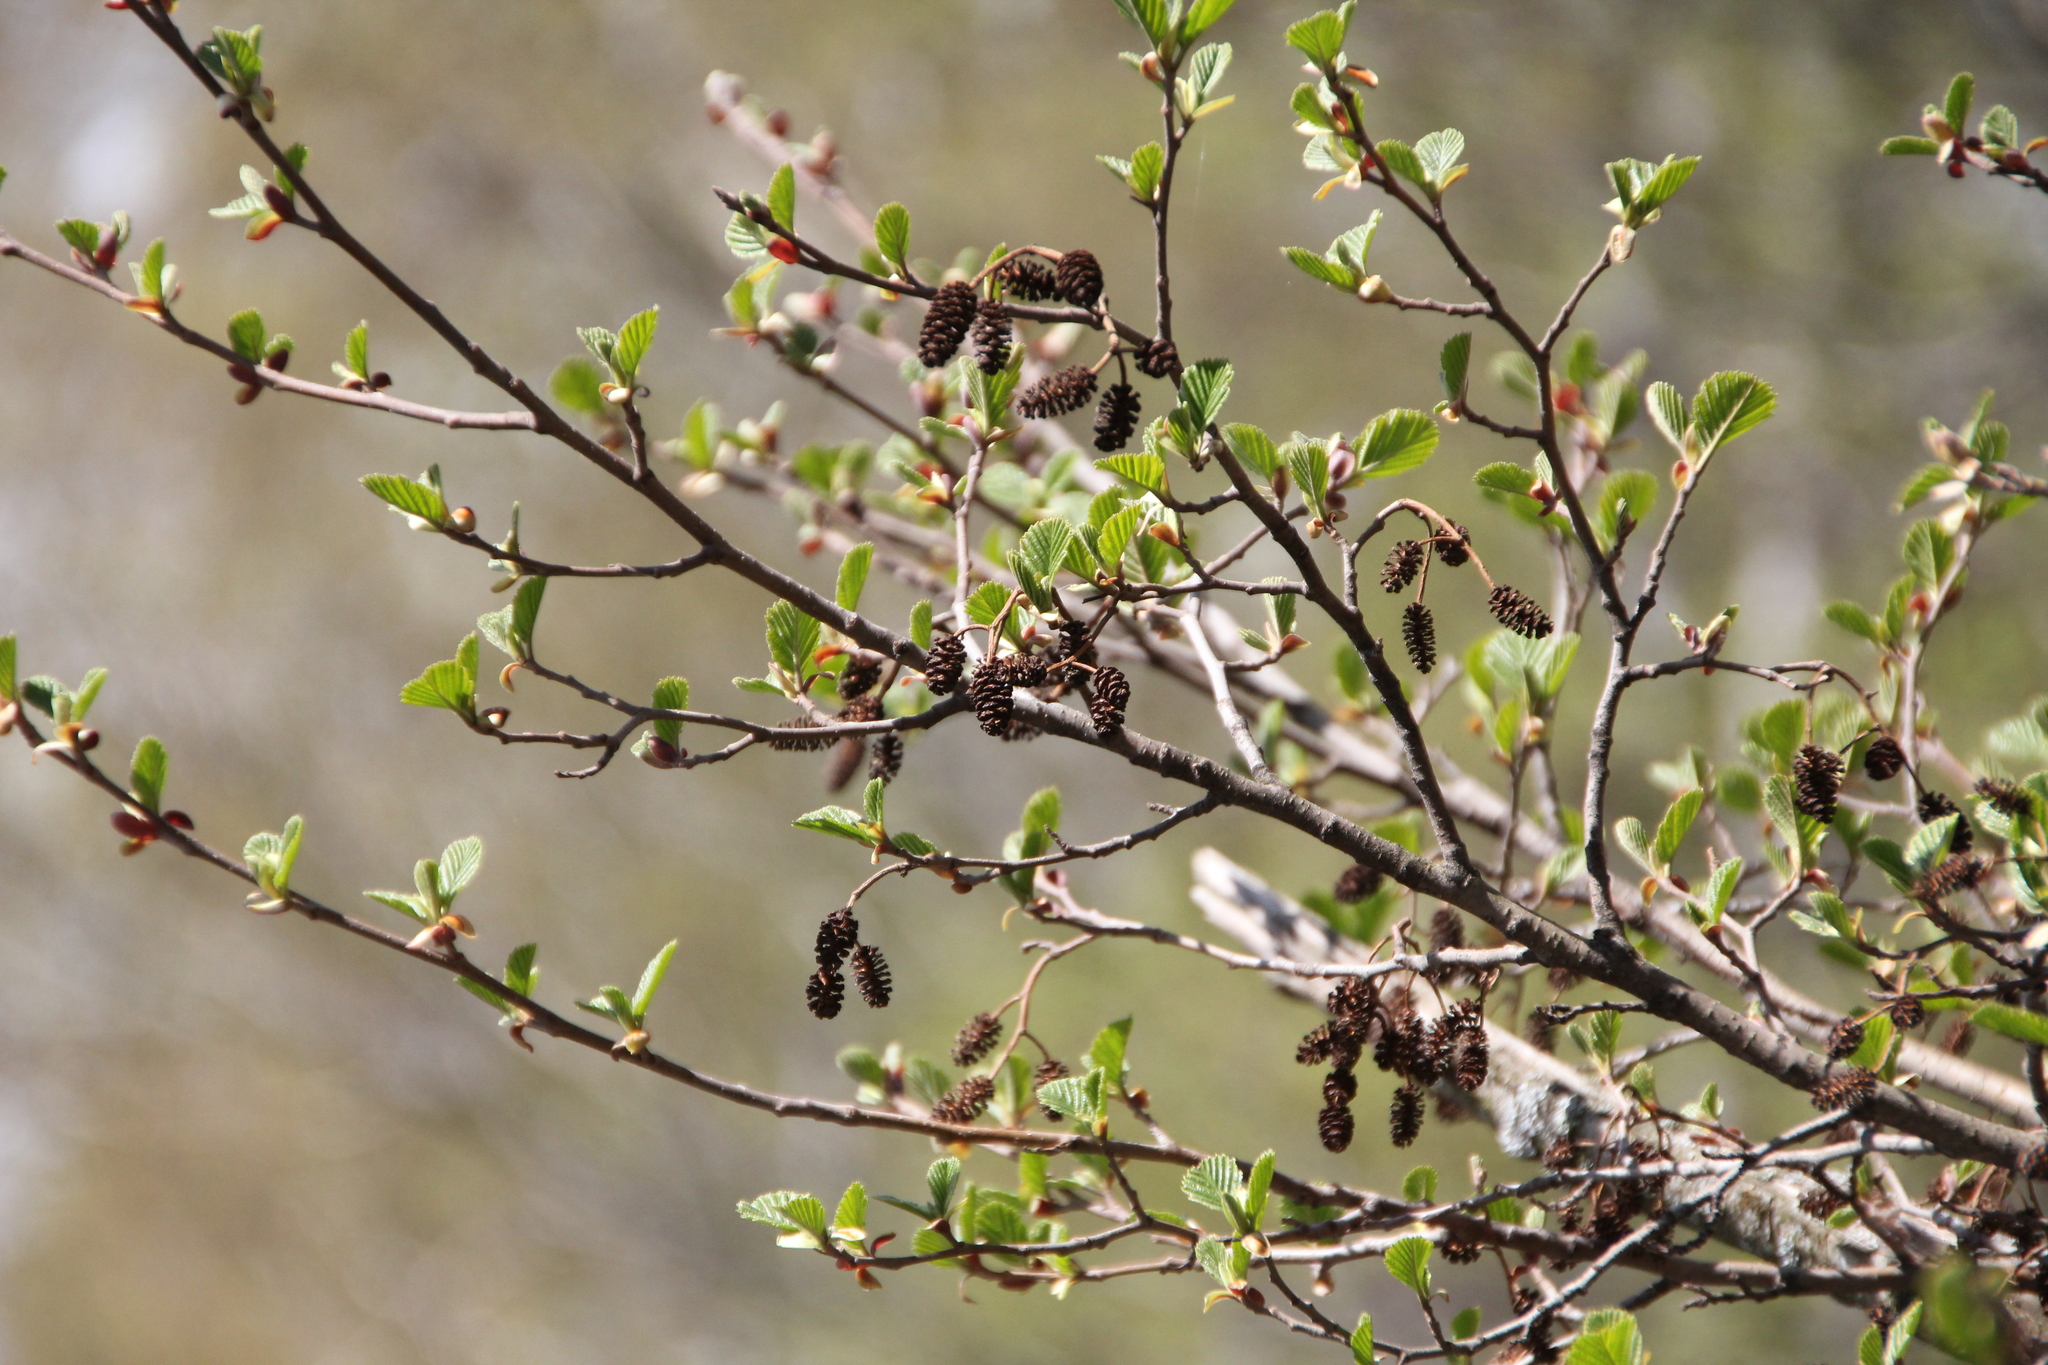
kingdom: Plantae
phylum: Tracheophyta
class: Magnoliopsida
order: Fagales
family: Betulaceae
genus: Alnus
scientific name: Alnus glutinosa
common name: Black alder
